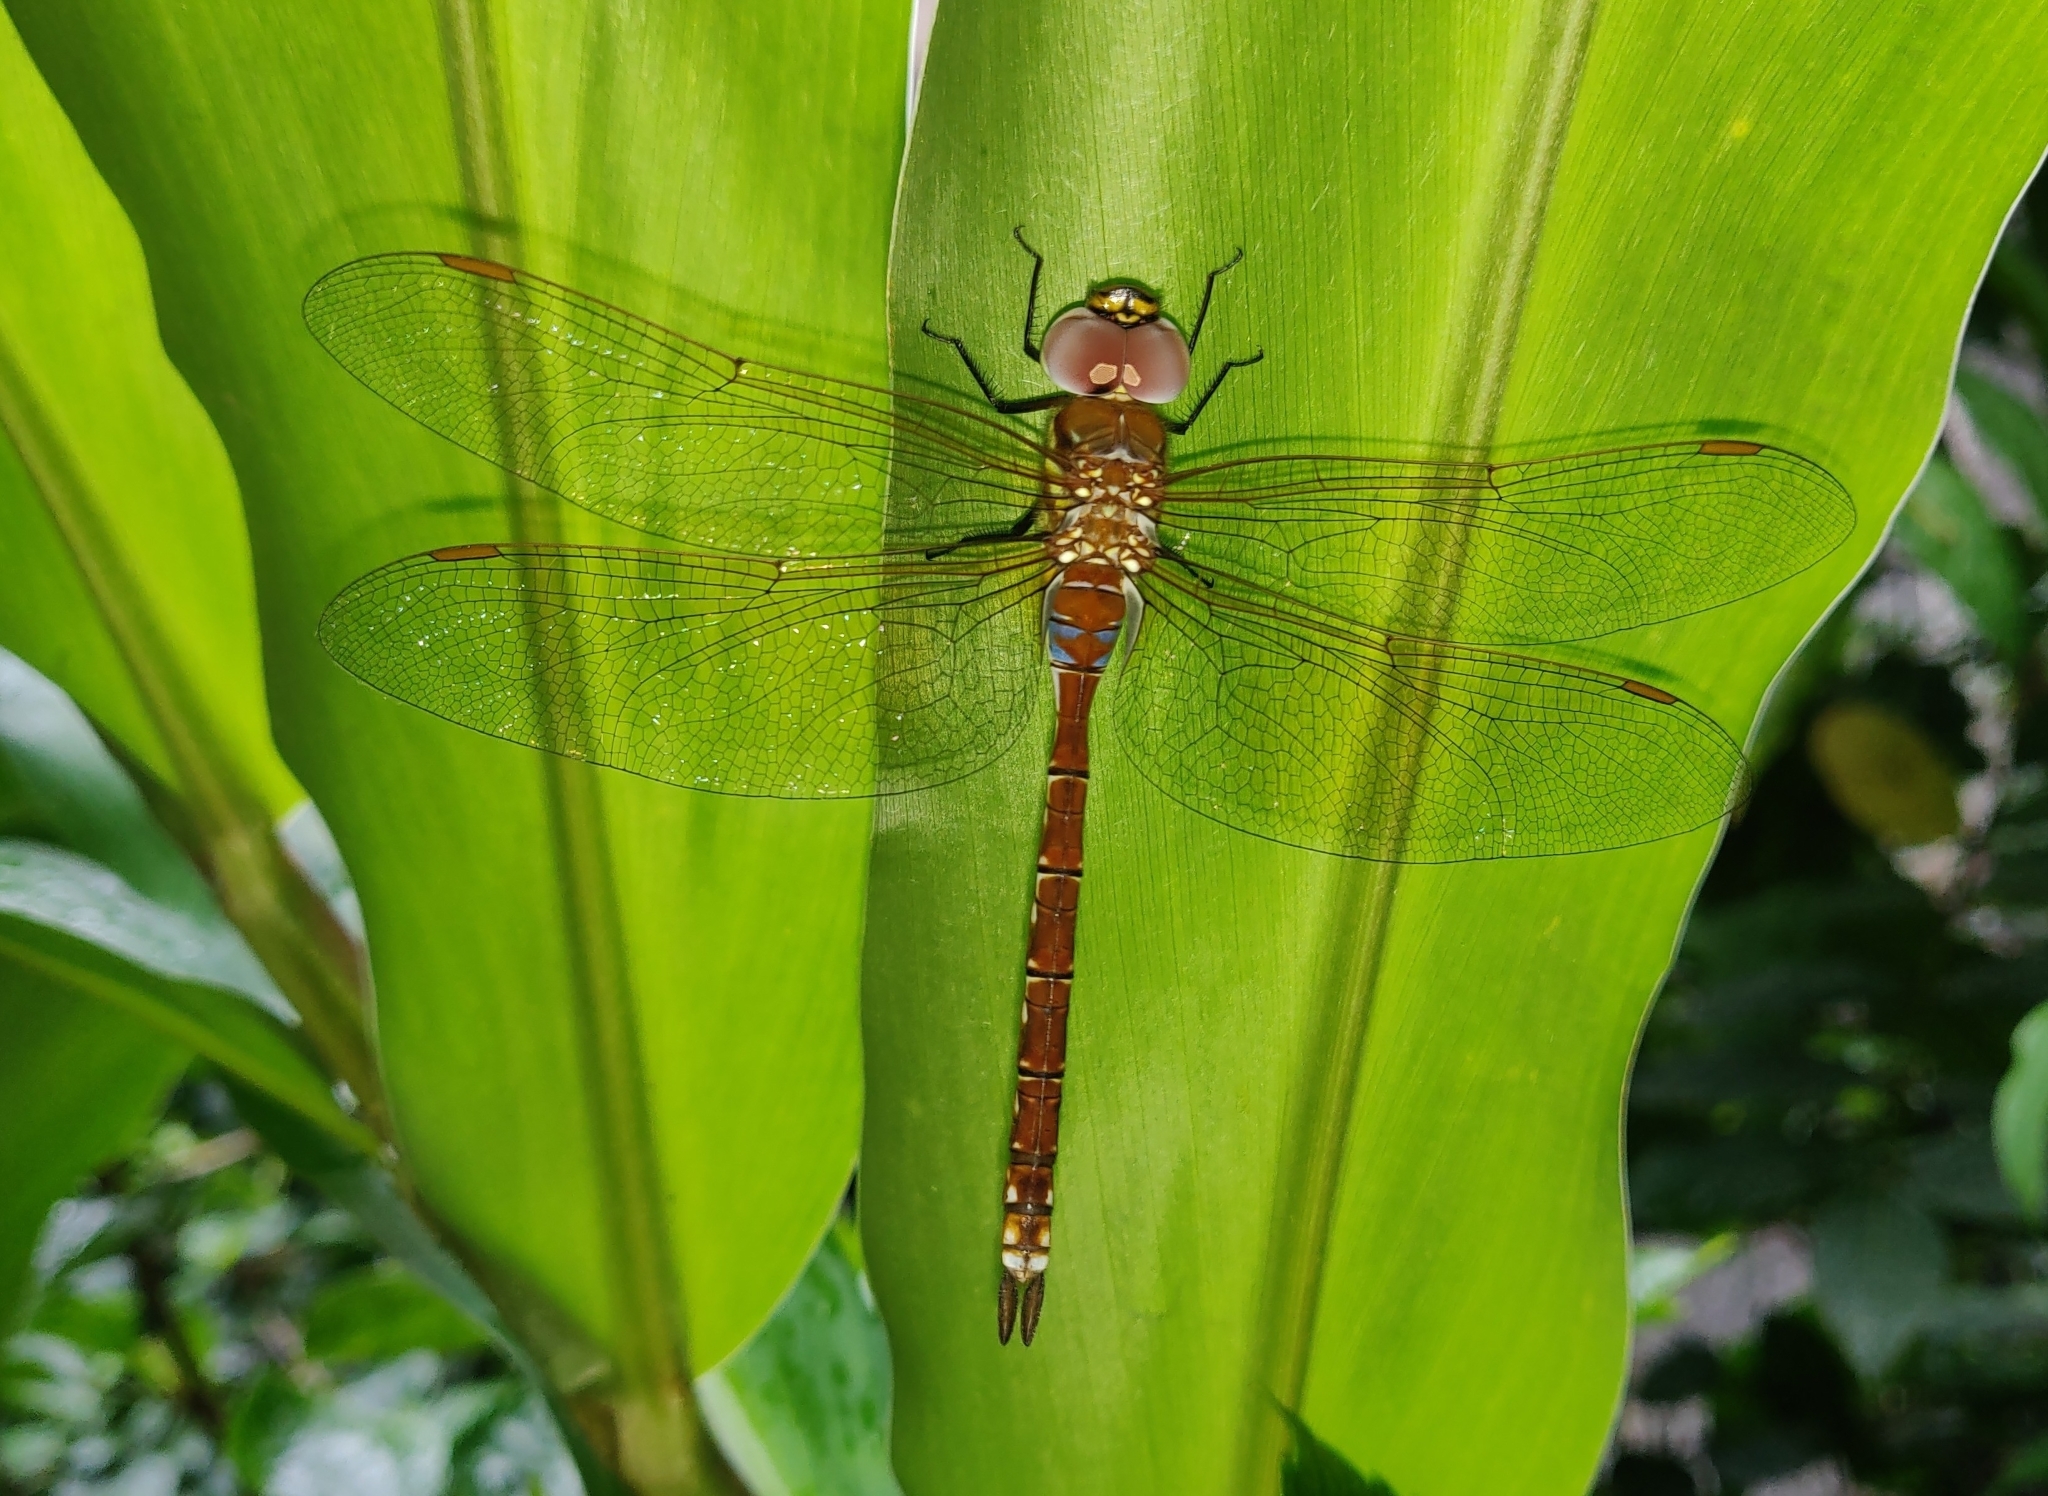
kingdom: Animalia
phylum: Arthropoda
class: Insecta
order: Odonata
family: Aeshnidae
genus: Anaciaeschna
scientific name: Anaciaeschna jaspidea
